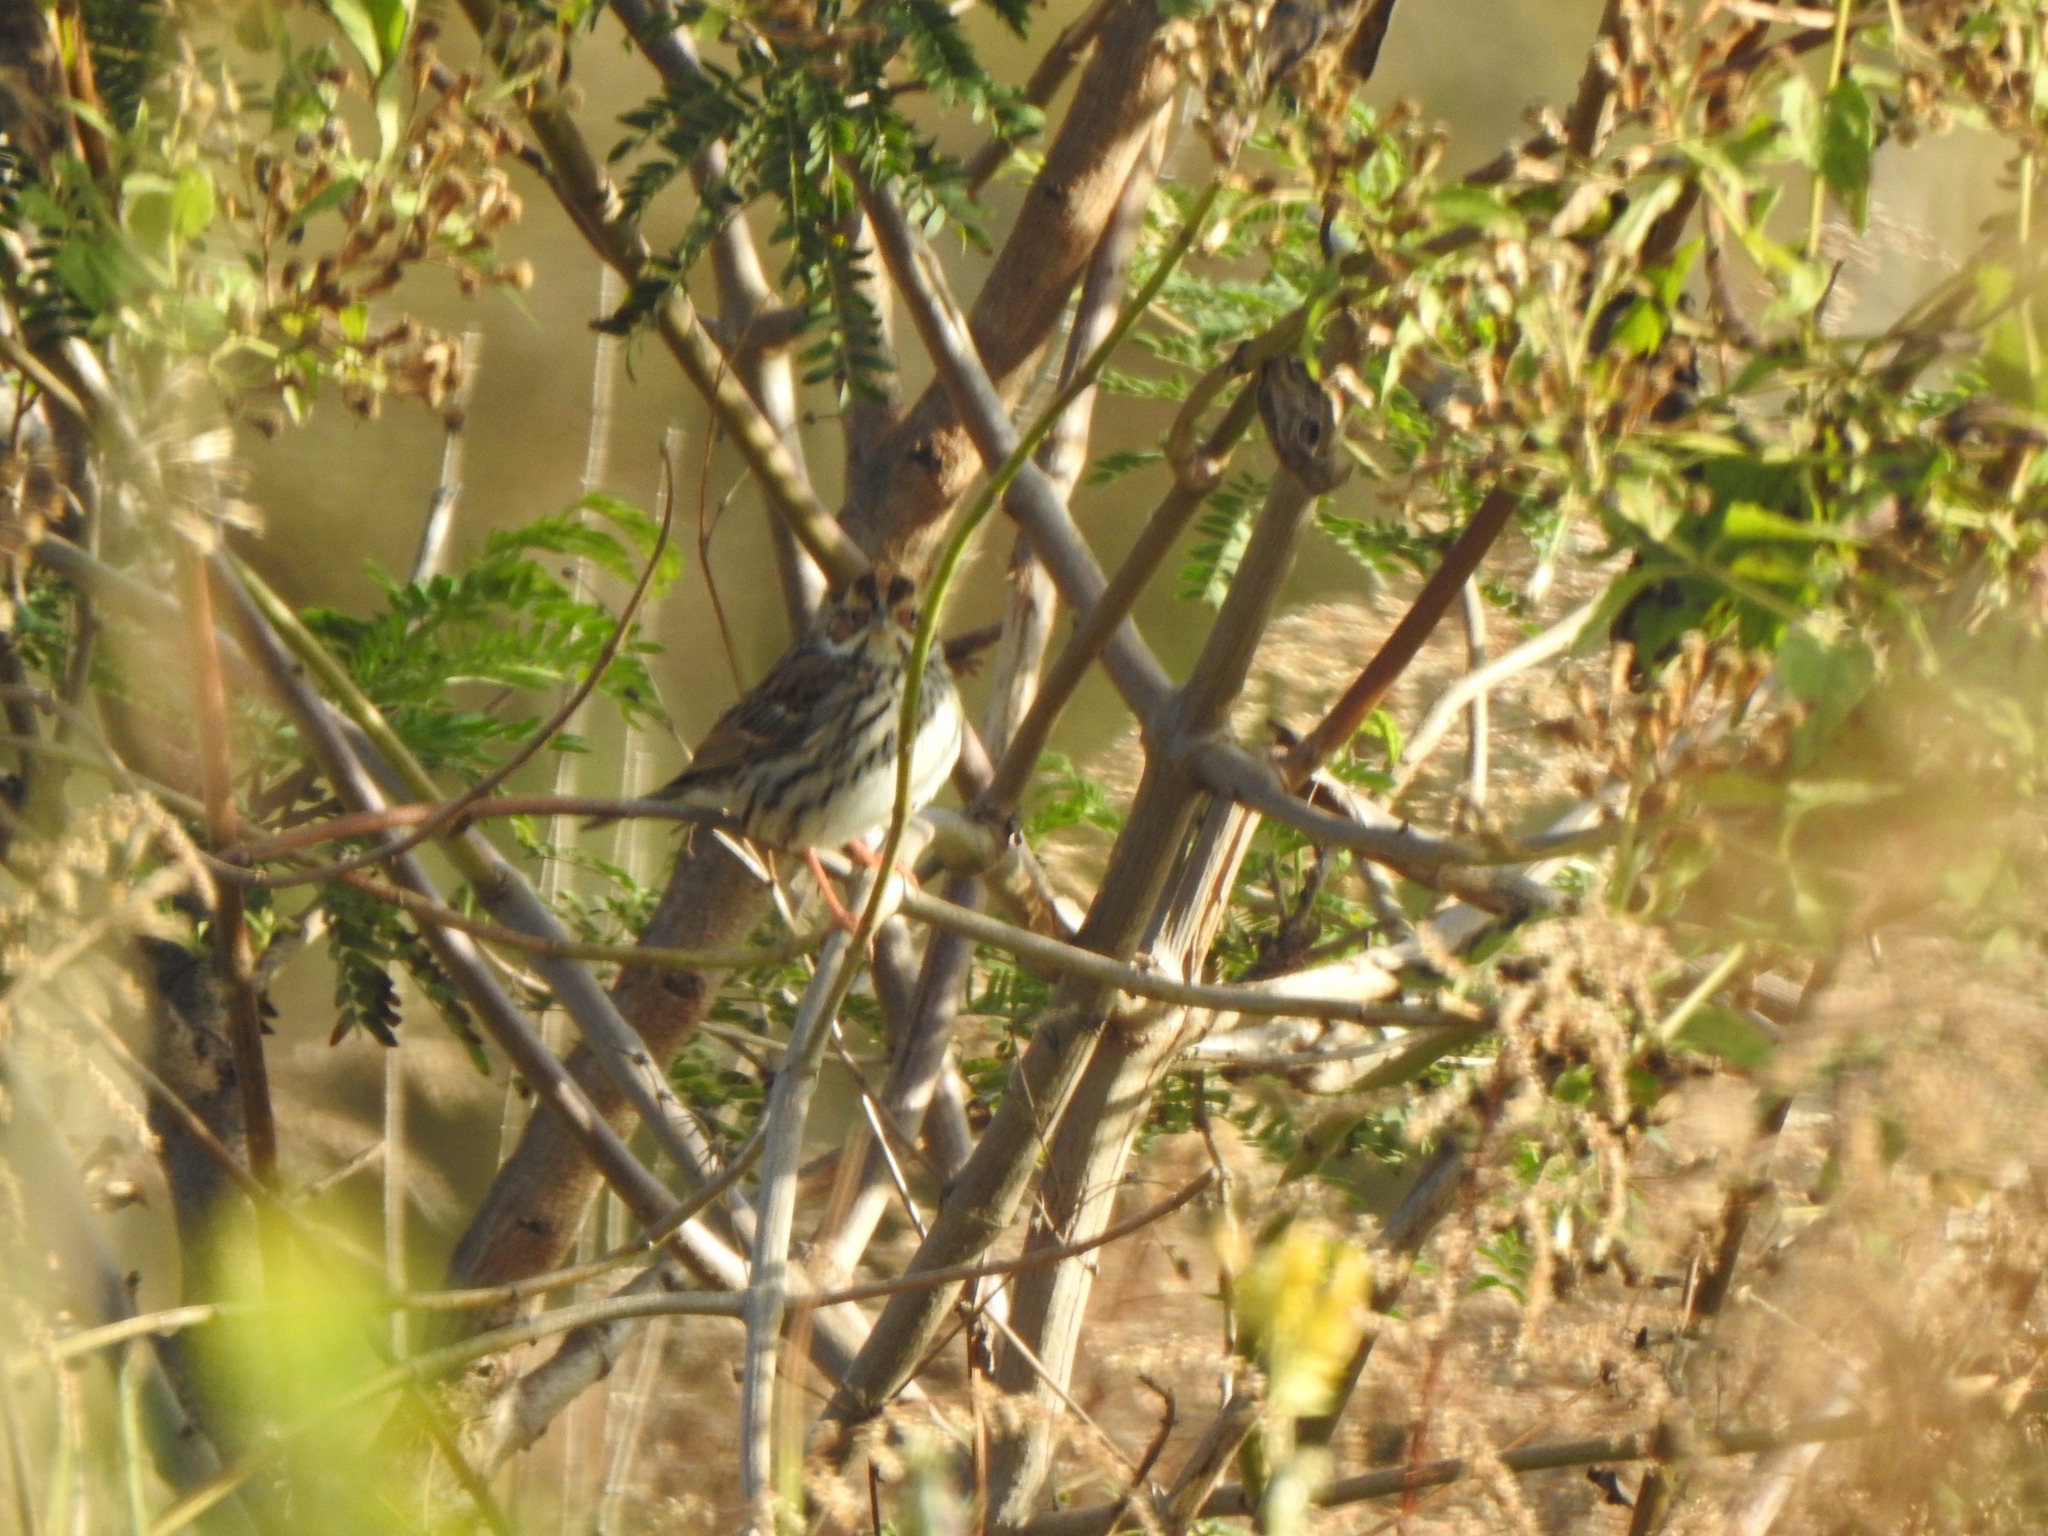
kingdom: Animalia
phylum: Chordata
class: Aves
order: Passeriformes
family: Emberizidae
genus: Emberiza
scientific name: Emberiza pusilla
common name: Little bunting
